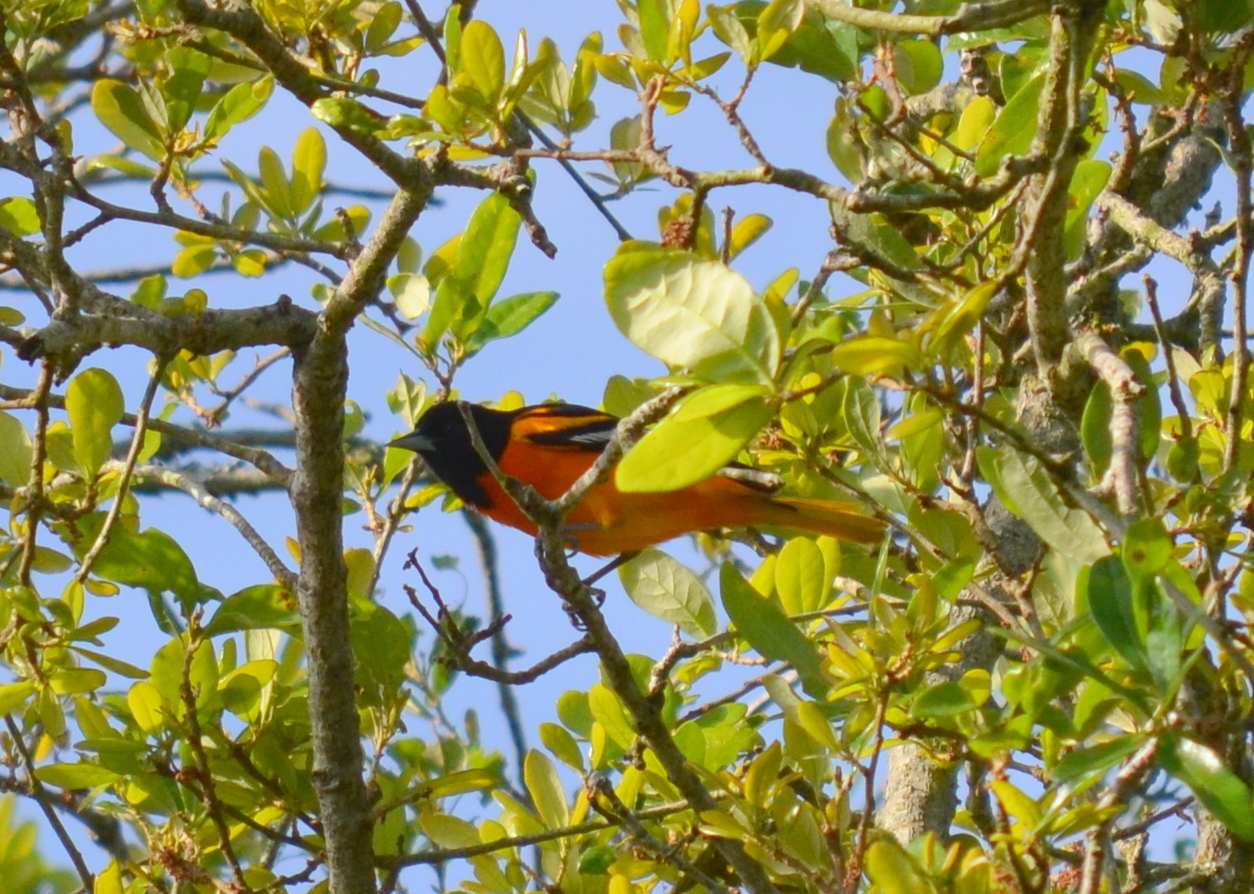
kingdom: Animalia
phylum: Chordata
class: Aves
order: Passeriformes
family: Icteridae
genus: Icterus
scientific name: Icterus galbula
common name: Baltimore oriole
